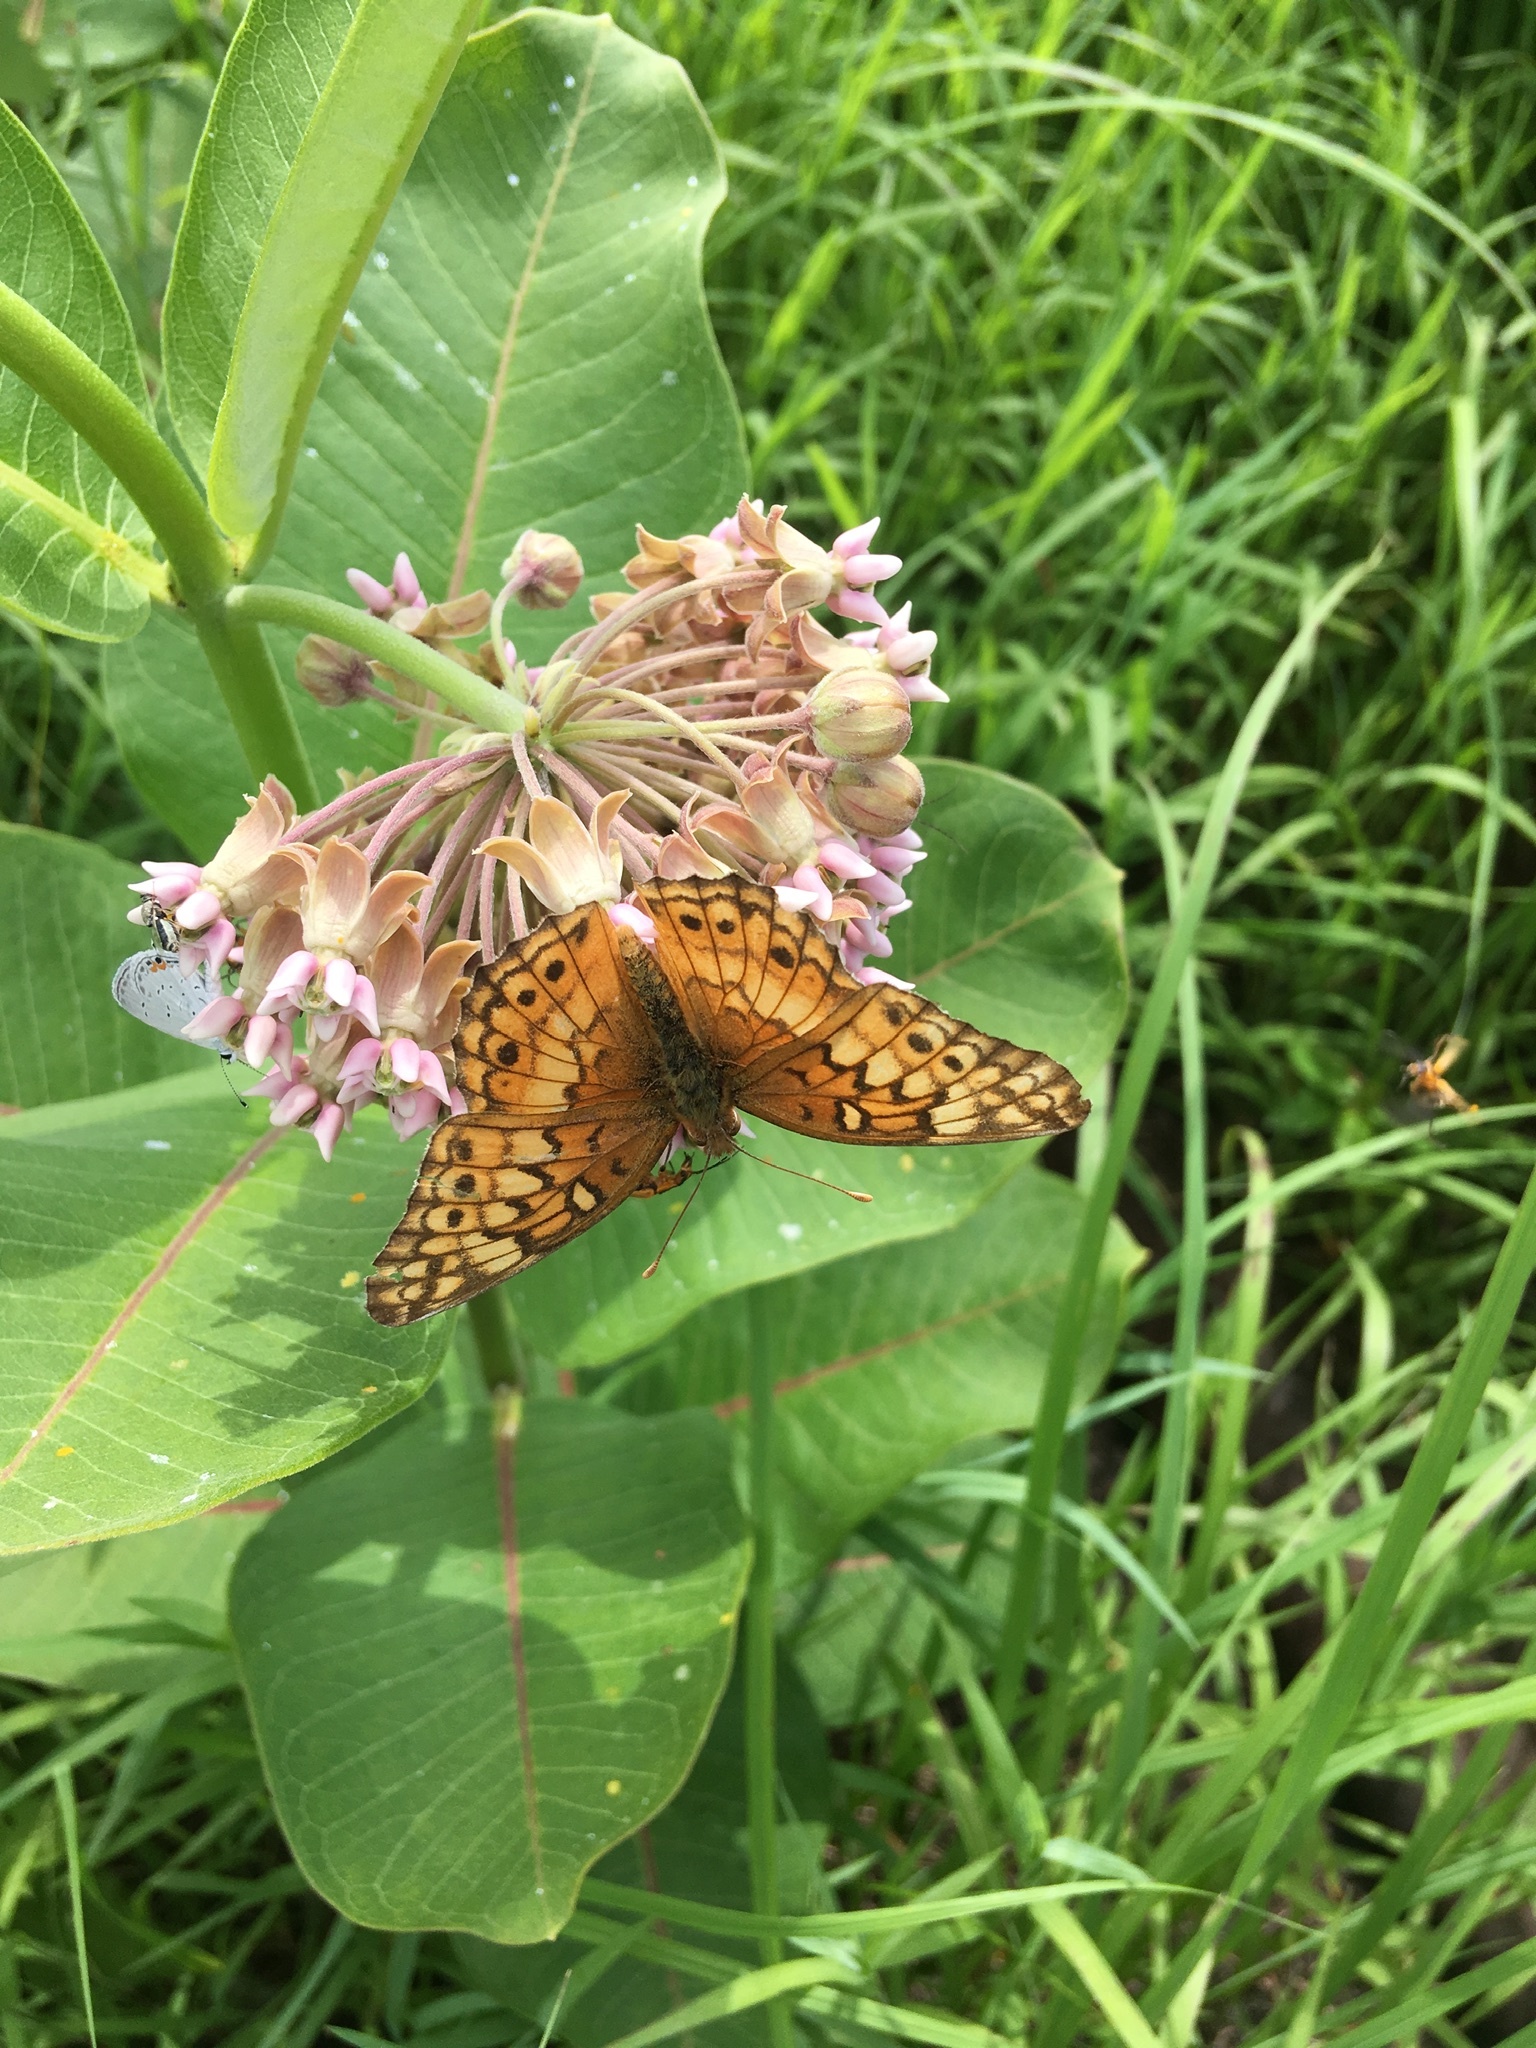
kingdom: Animalia
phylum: Arthropoda
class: Insecta
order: Lepidoptera
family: Nymphalidae
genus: Euptoieta
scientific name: Euptoieta claudia
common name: Variegated fritillary
